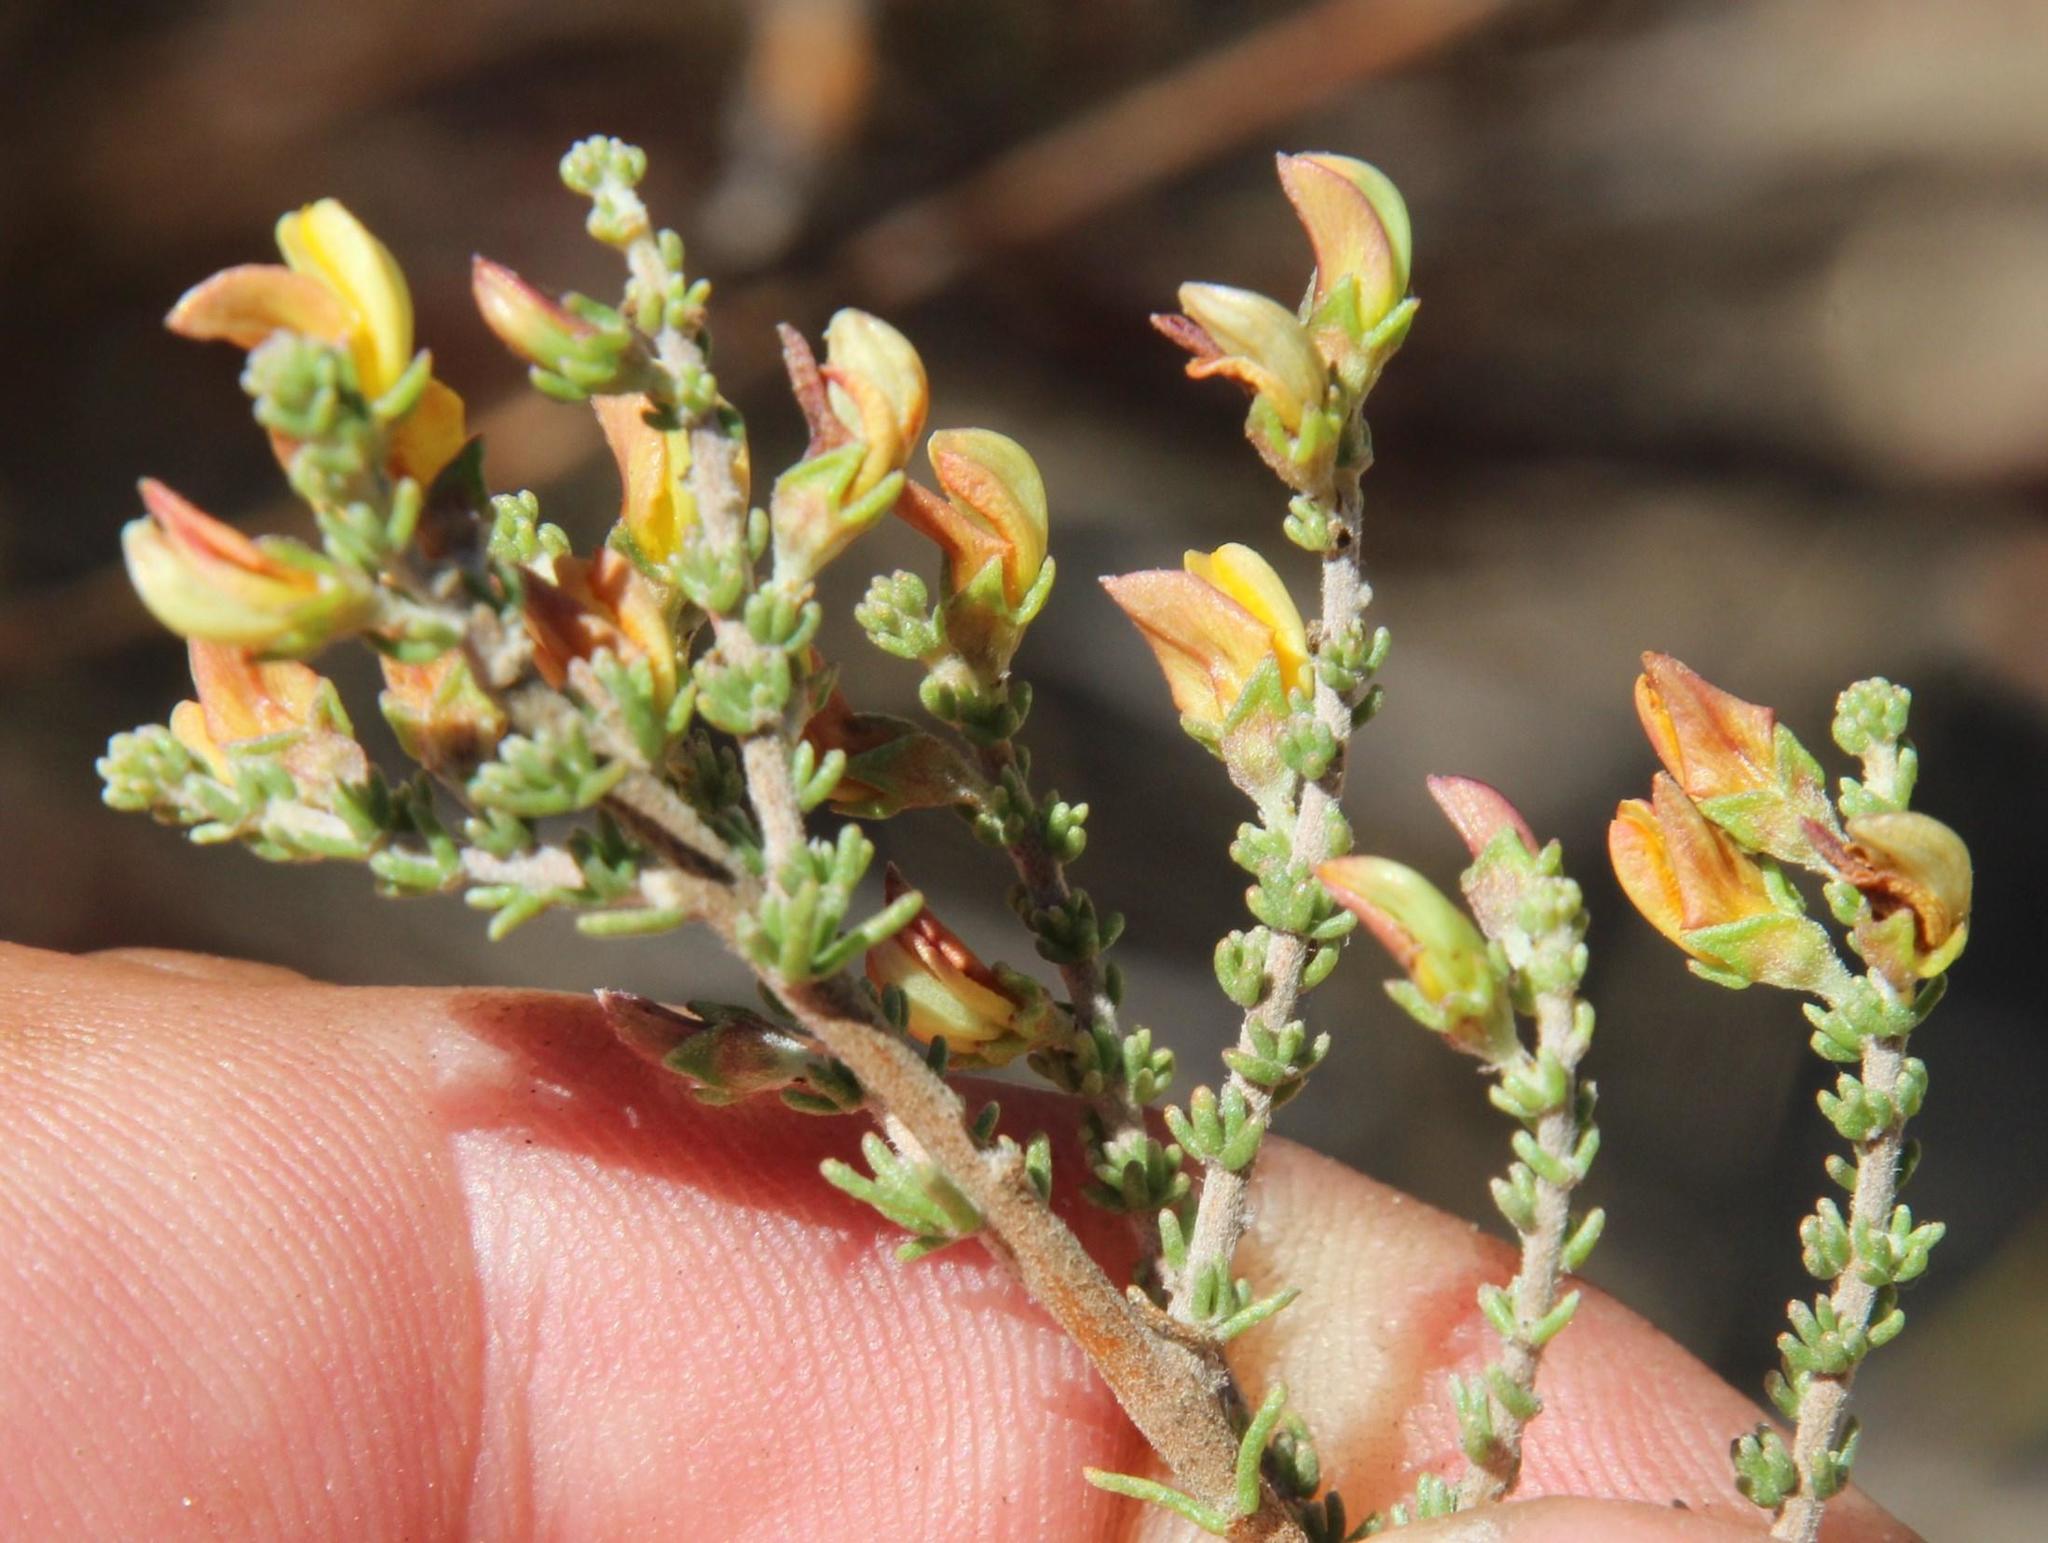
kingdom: Plantae
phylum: Tracheophyta
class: Magnoliopsida
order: Fabales
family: Fabaceae
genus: Aspalathus
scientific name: Aspalathus recurva
